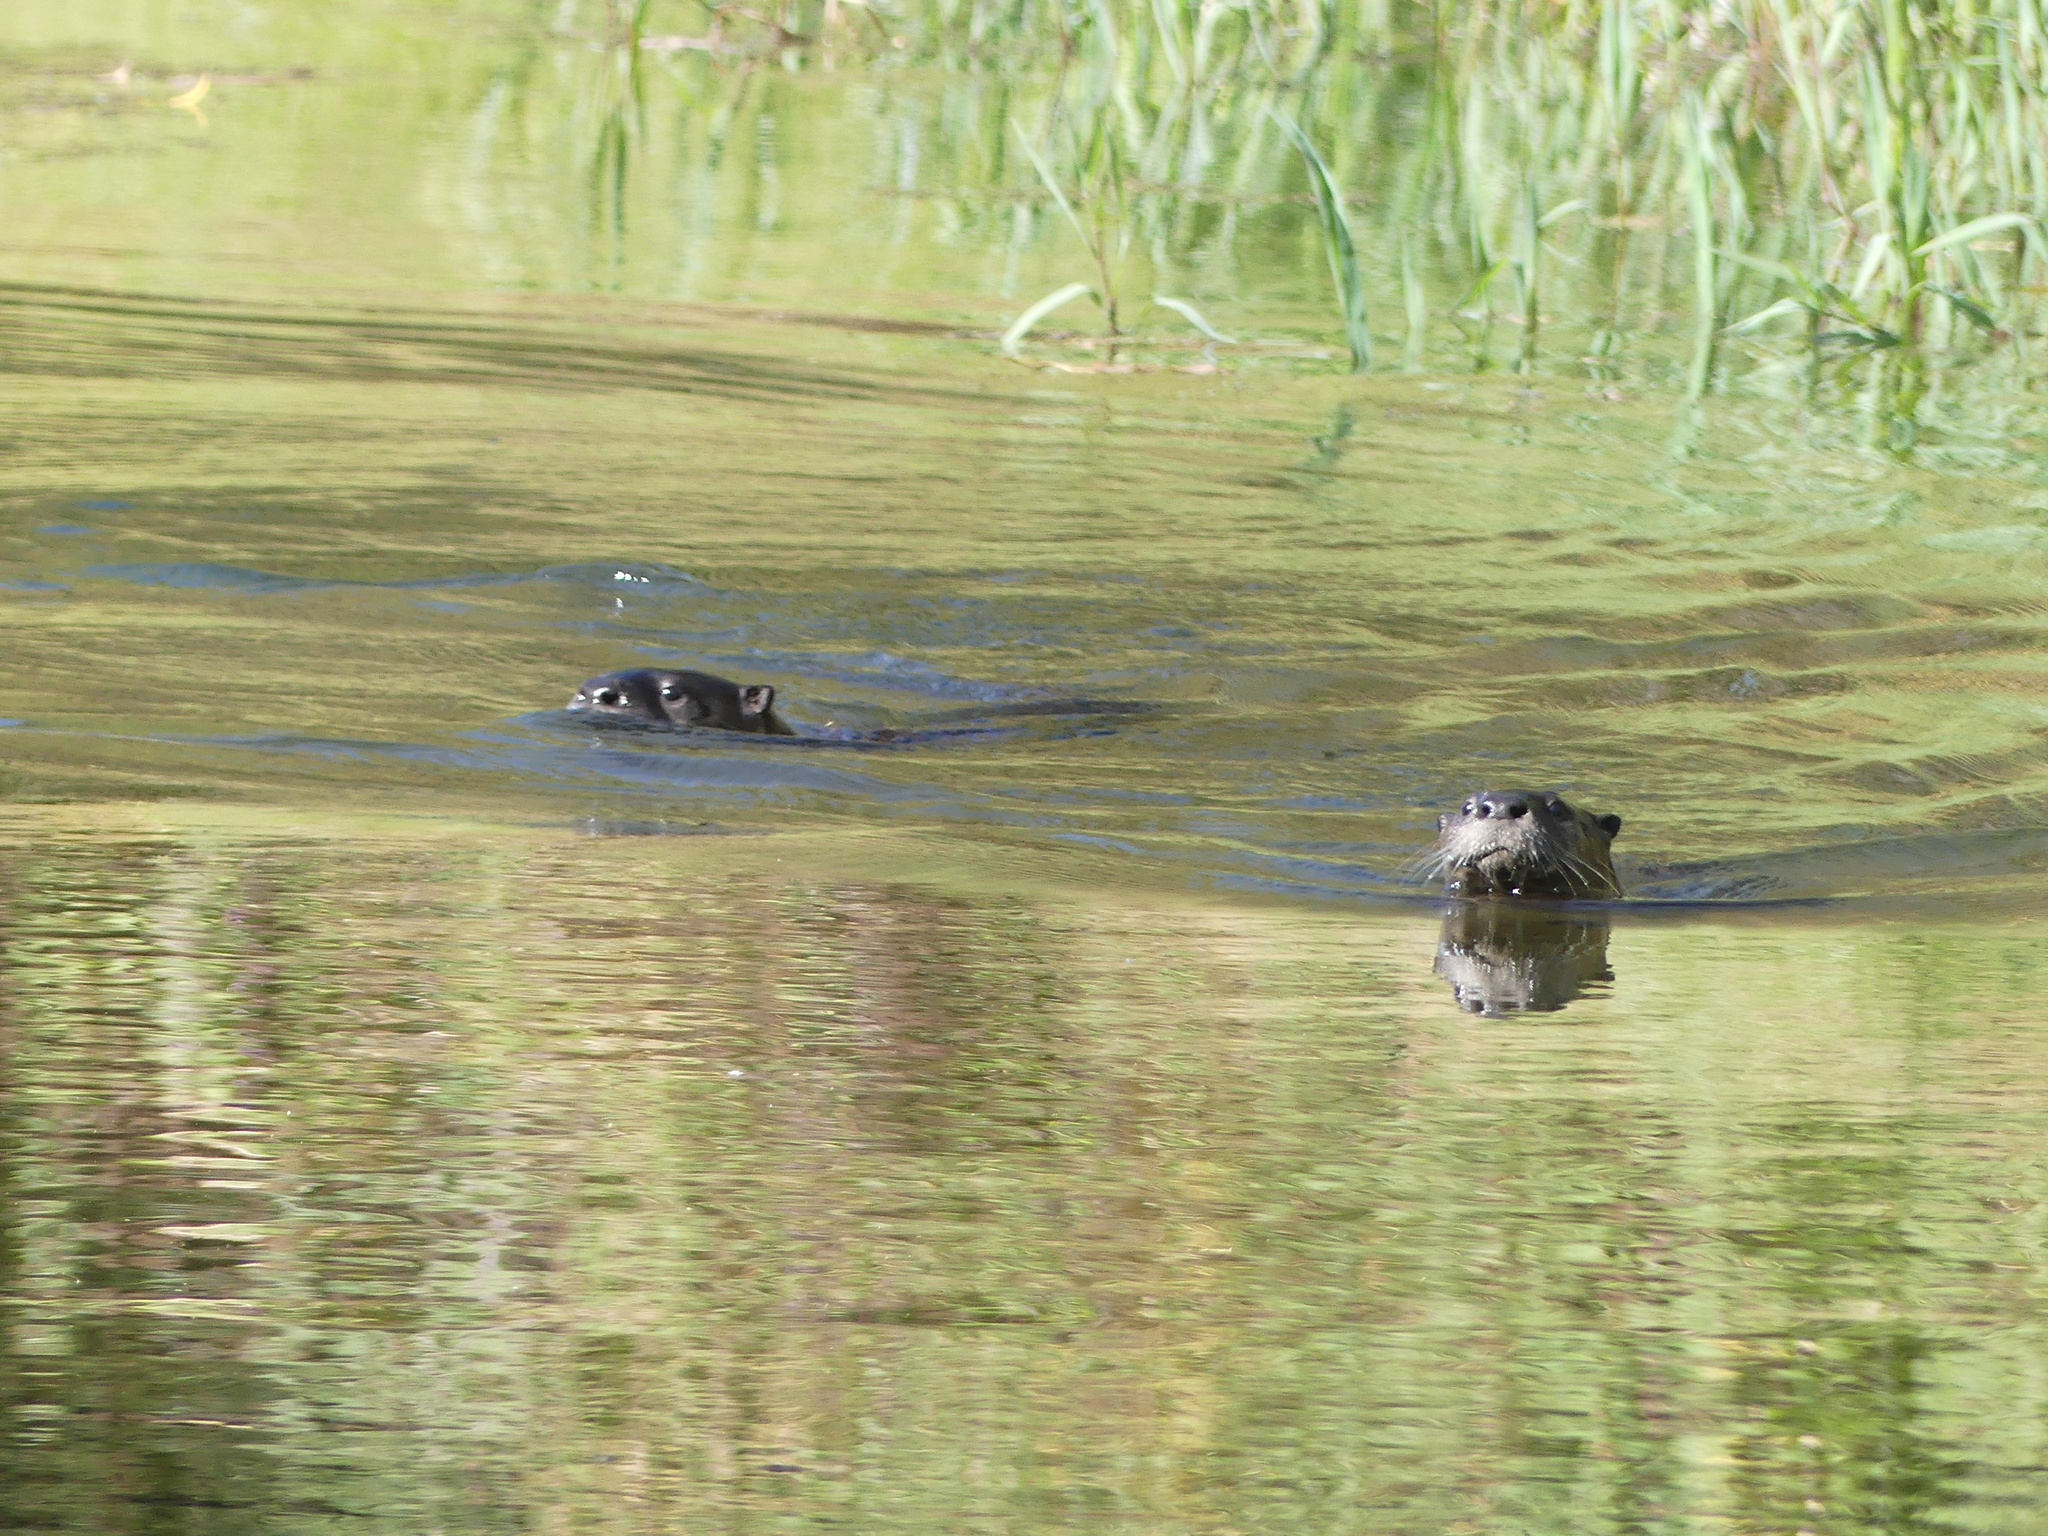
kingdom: Animalia
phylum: Chordata
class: Mammalia
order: Carnivora
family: Mustelidae
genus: Lontra
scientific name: Lontra canadensis
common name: North american river otter
